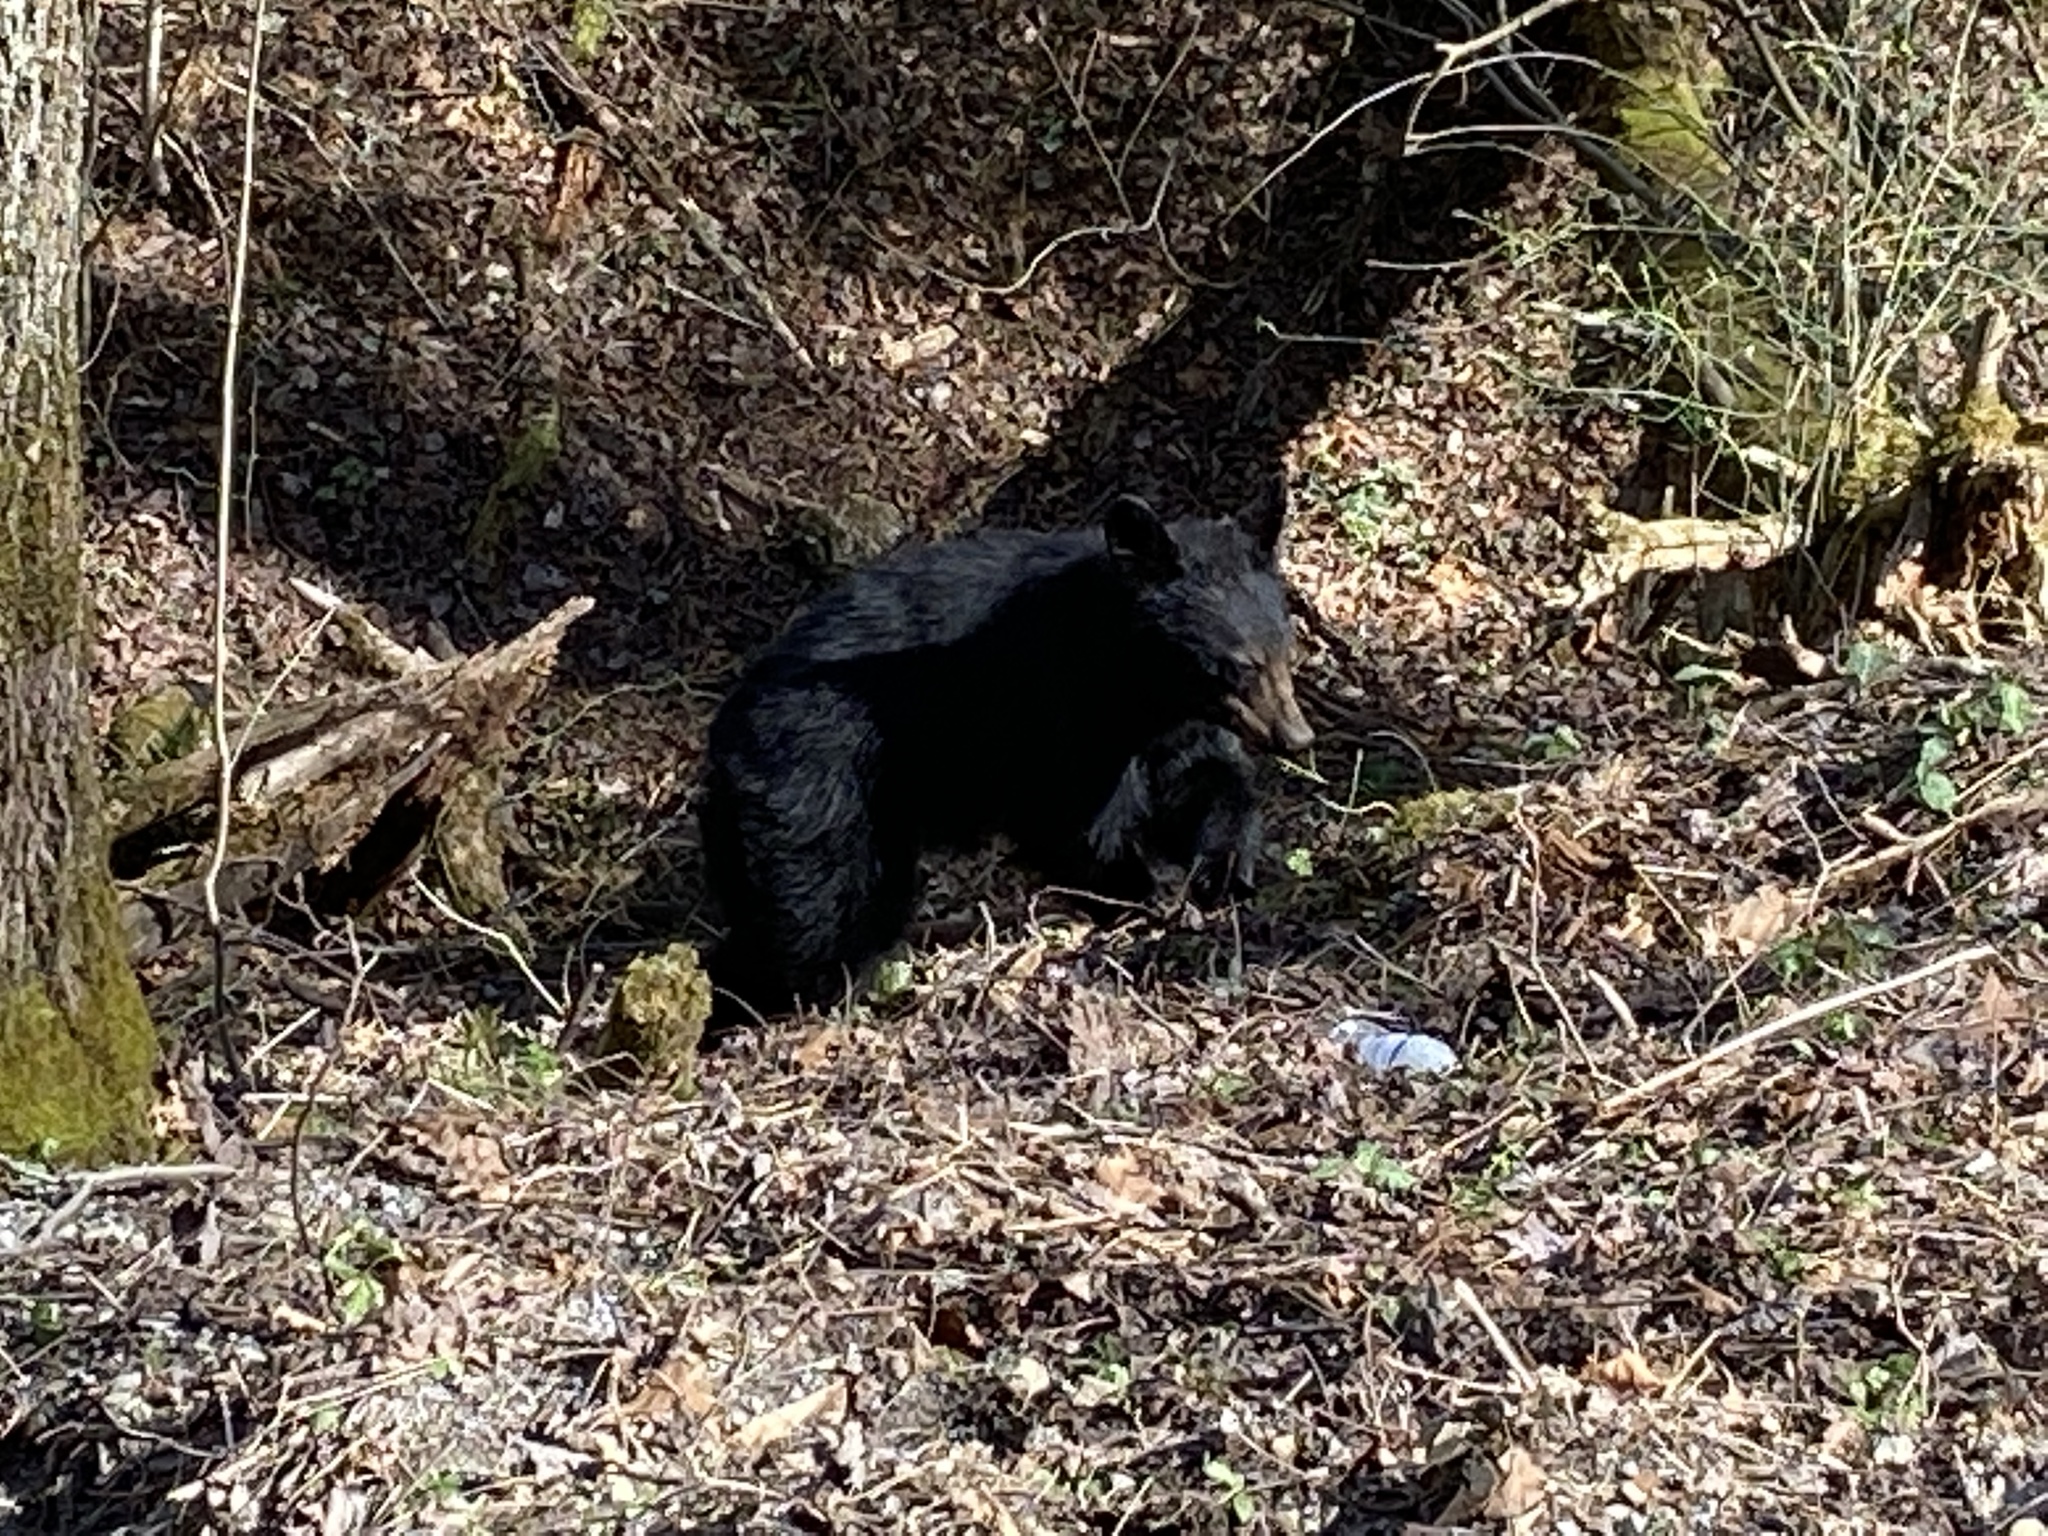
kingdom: Animalia
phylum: Chordata
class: Mammalia
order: Carnivora
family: Ursidae
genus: Ursus
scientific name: Ursus americanus
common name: American black bear
